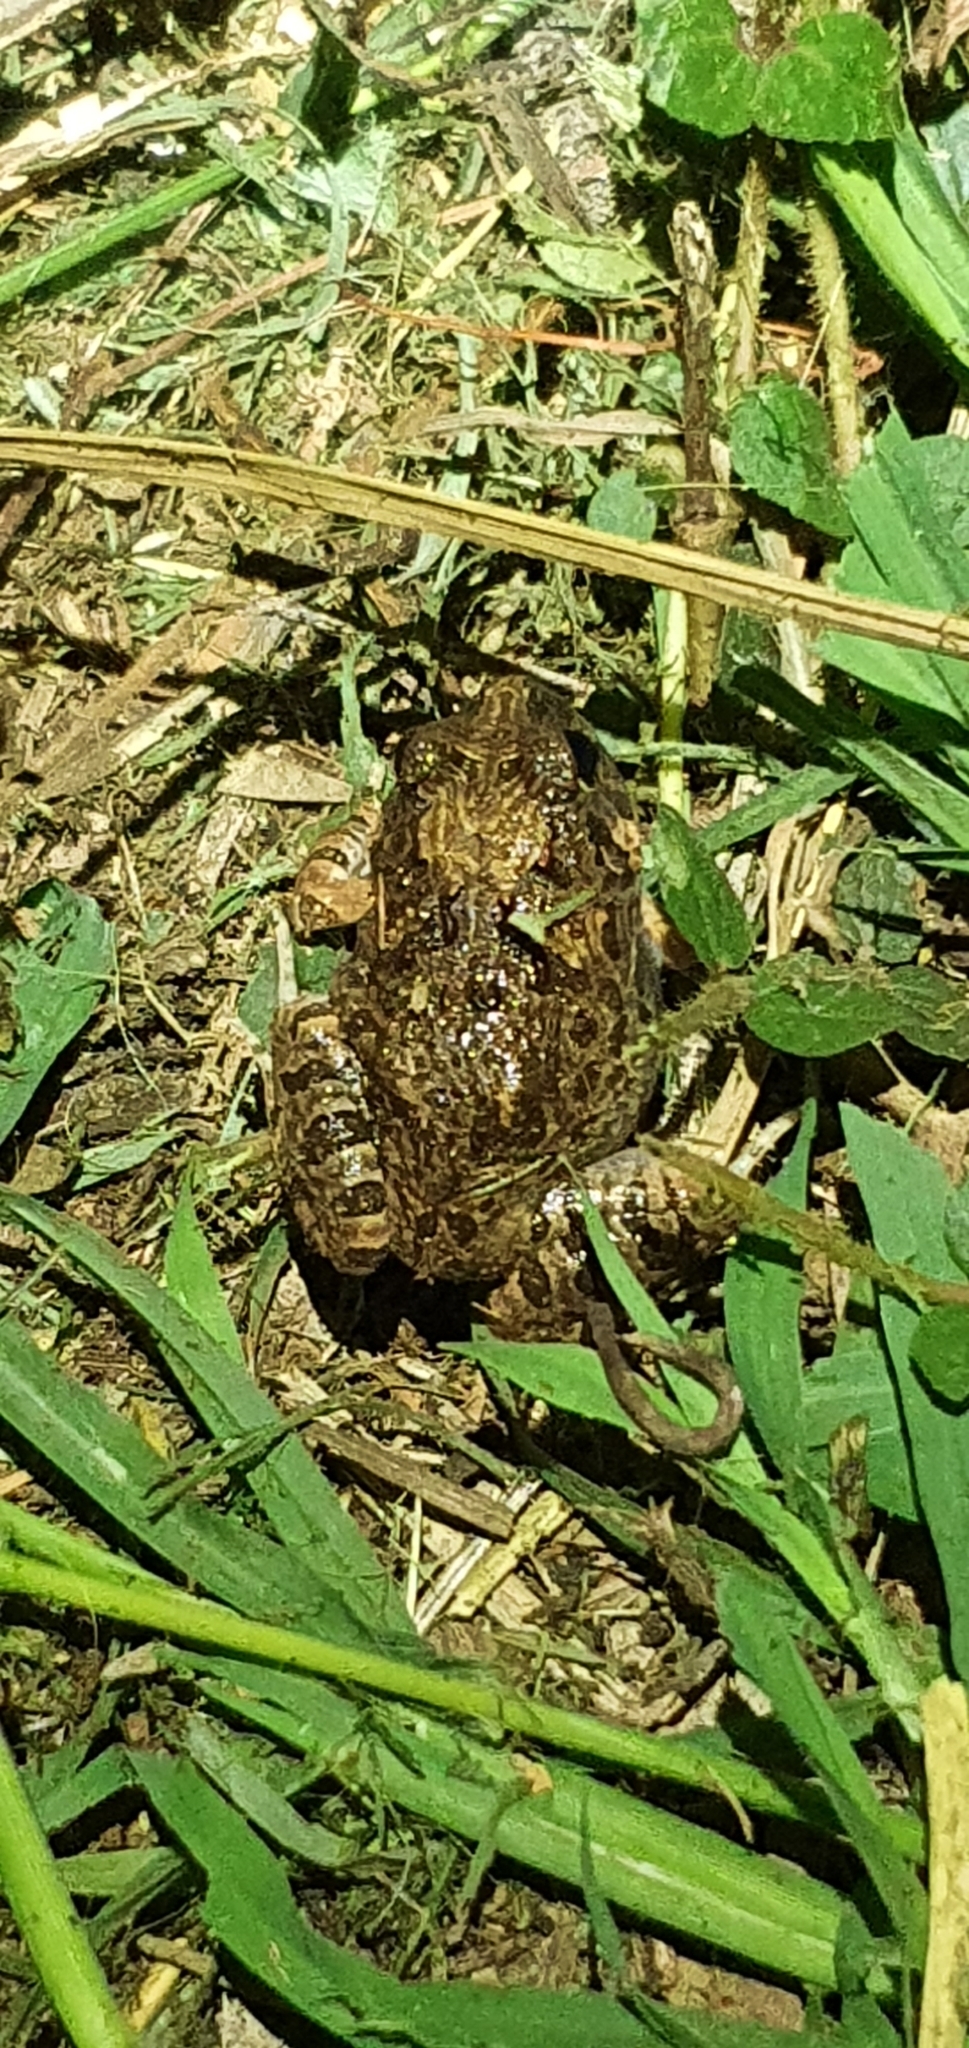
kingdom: Animalia
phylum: Chordata
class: Amphibia
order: Anura
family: Limnodynastidae
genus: Platyplectrum
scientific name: Platyplectrum ornatum
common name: Ornate burrowing frog
